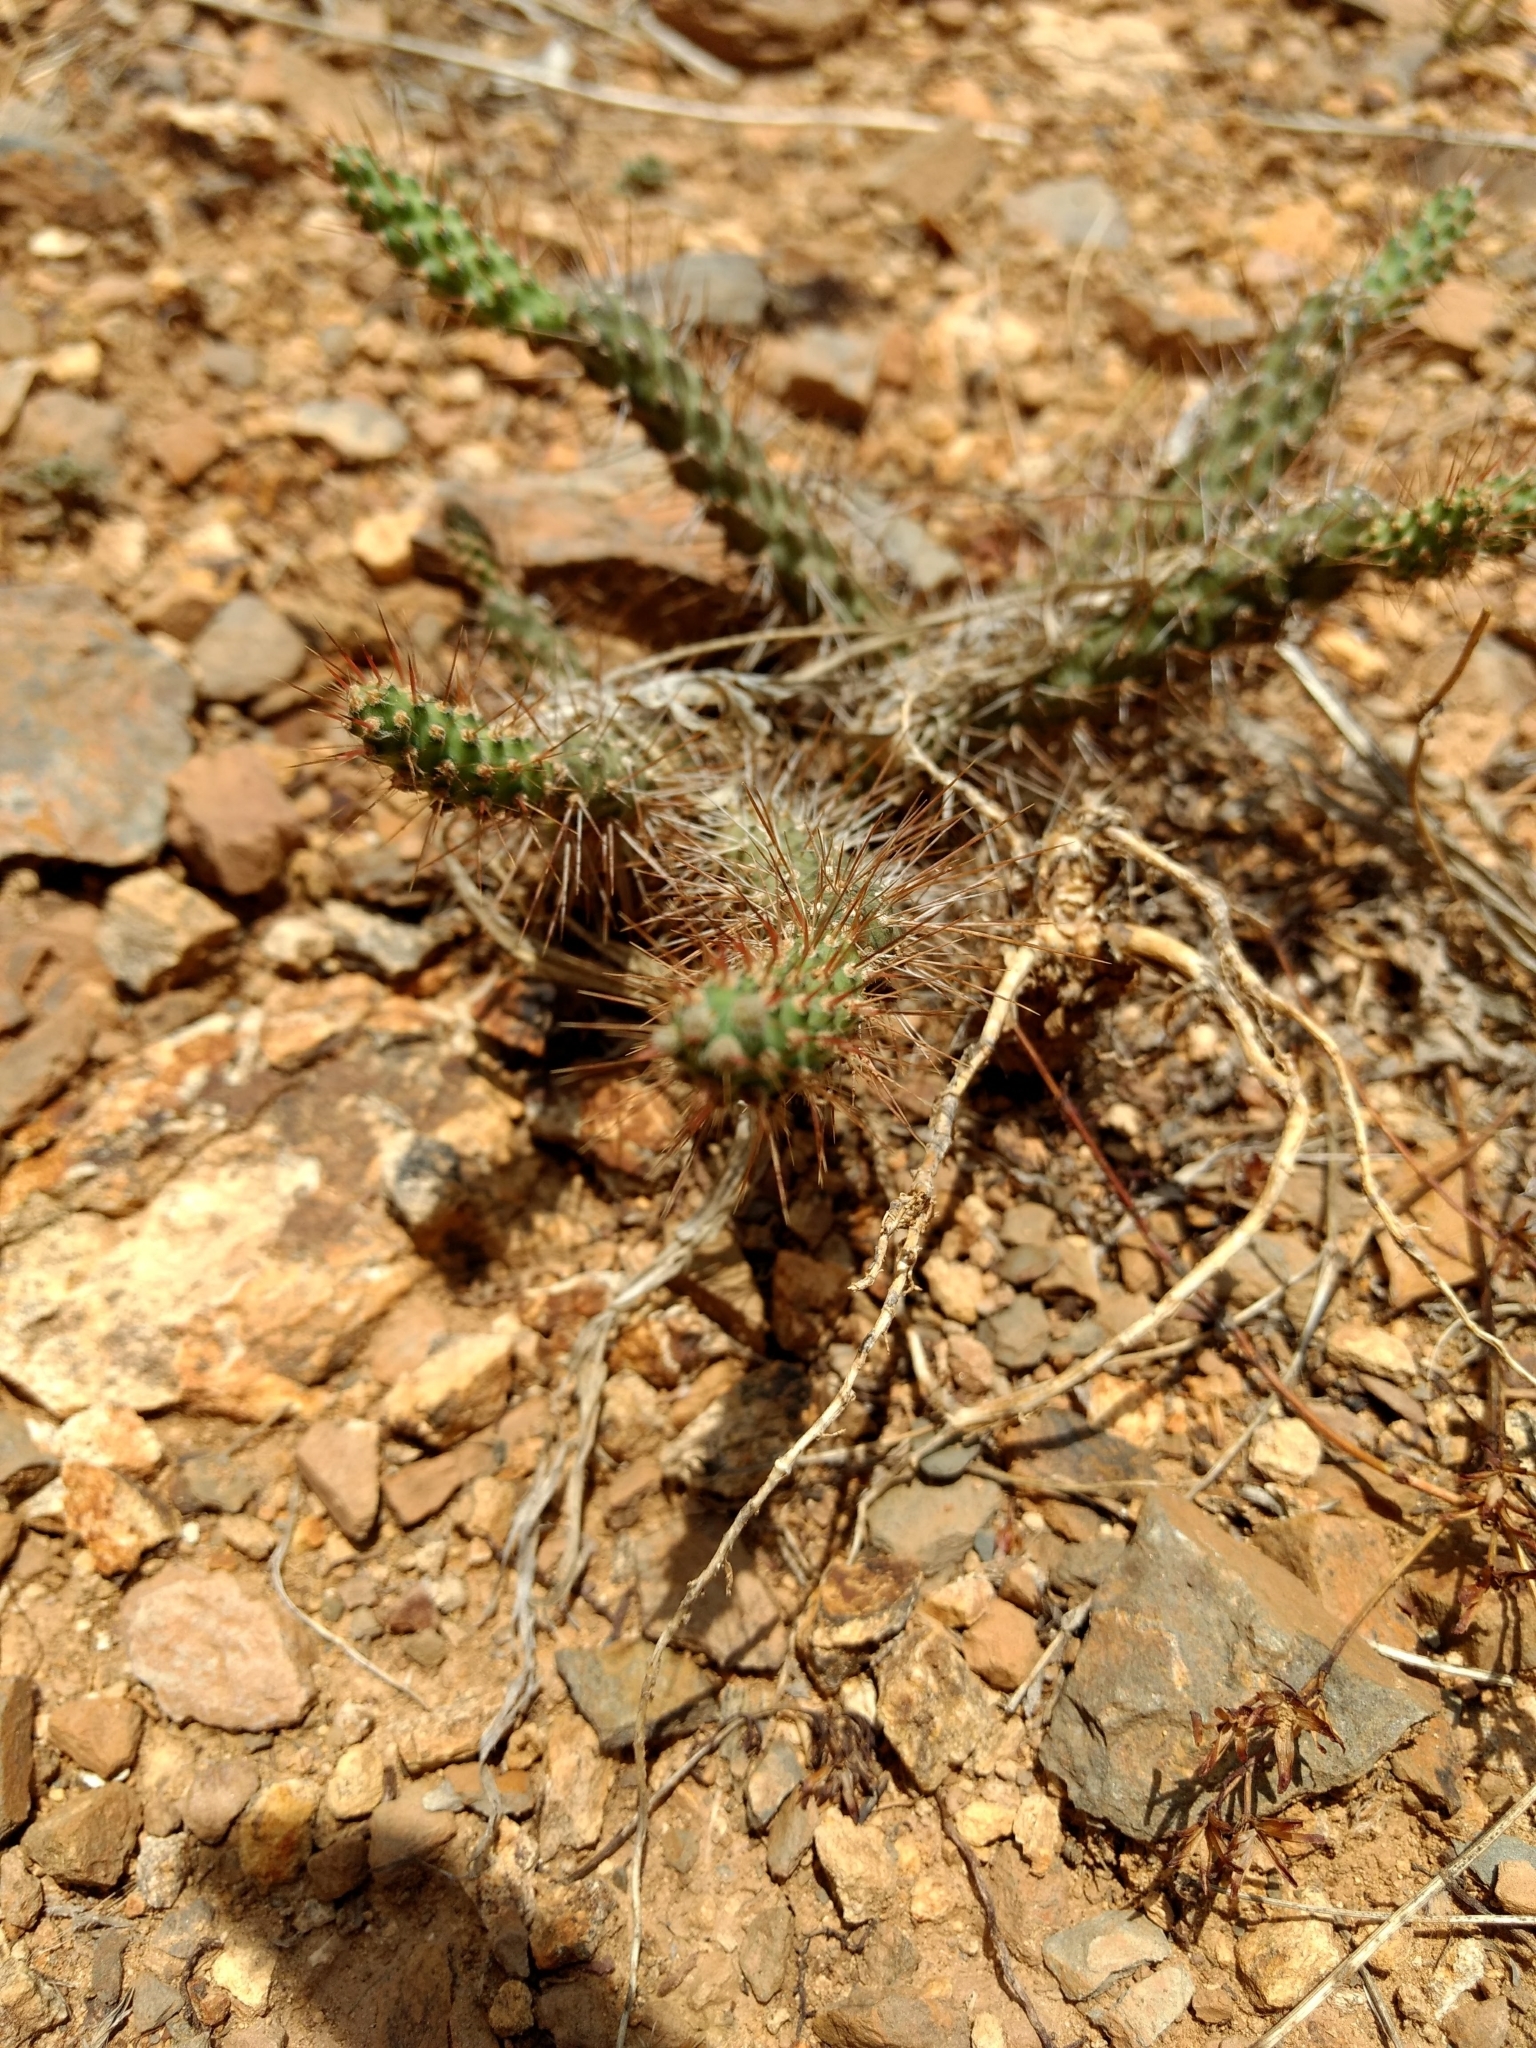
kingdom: Plantae
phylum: Tracheophyta
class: Magnoliopsida
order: Caryophyllales
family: Cactaceae
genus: Opuntia
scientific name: Opuntia
